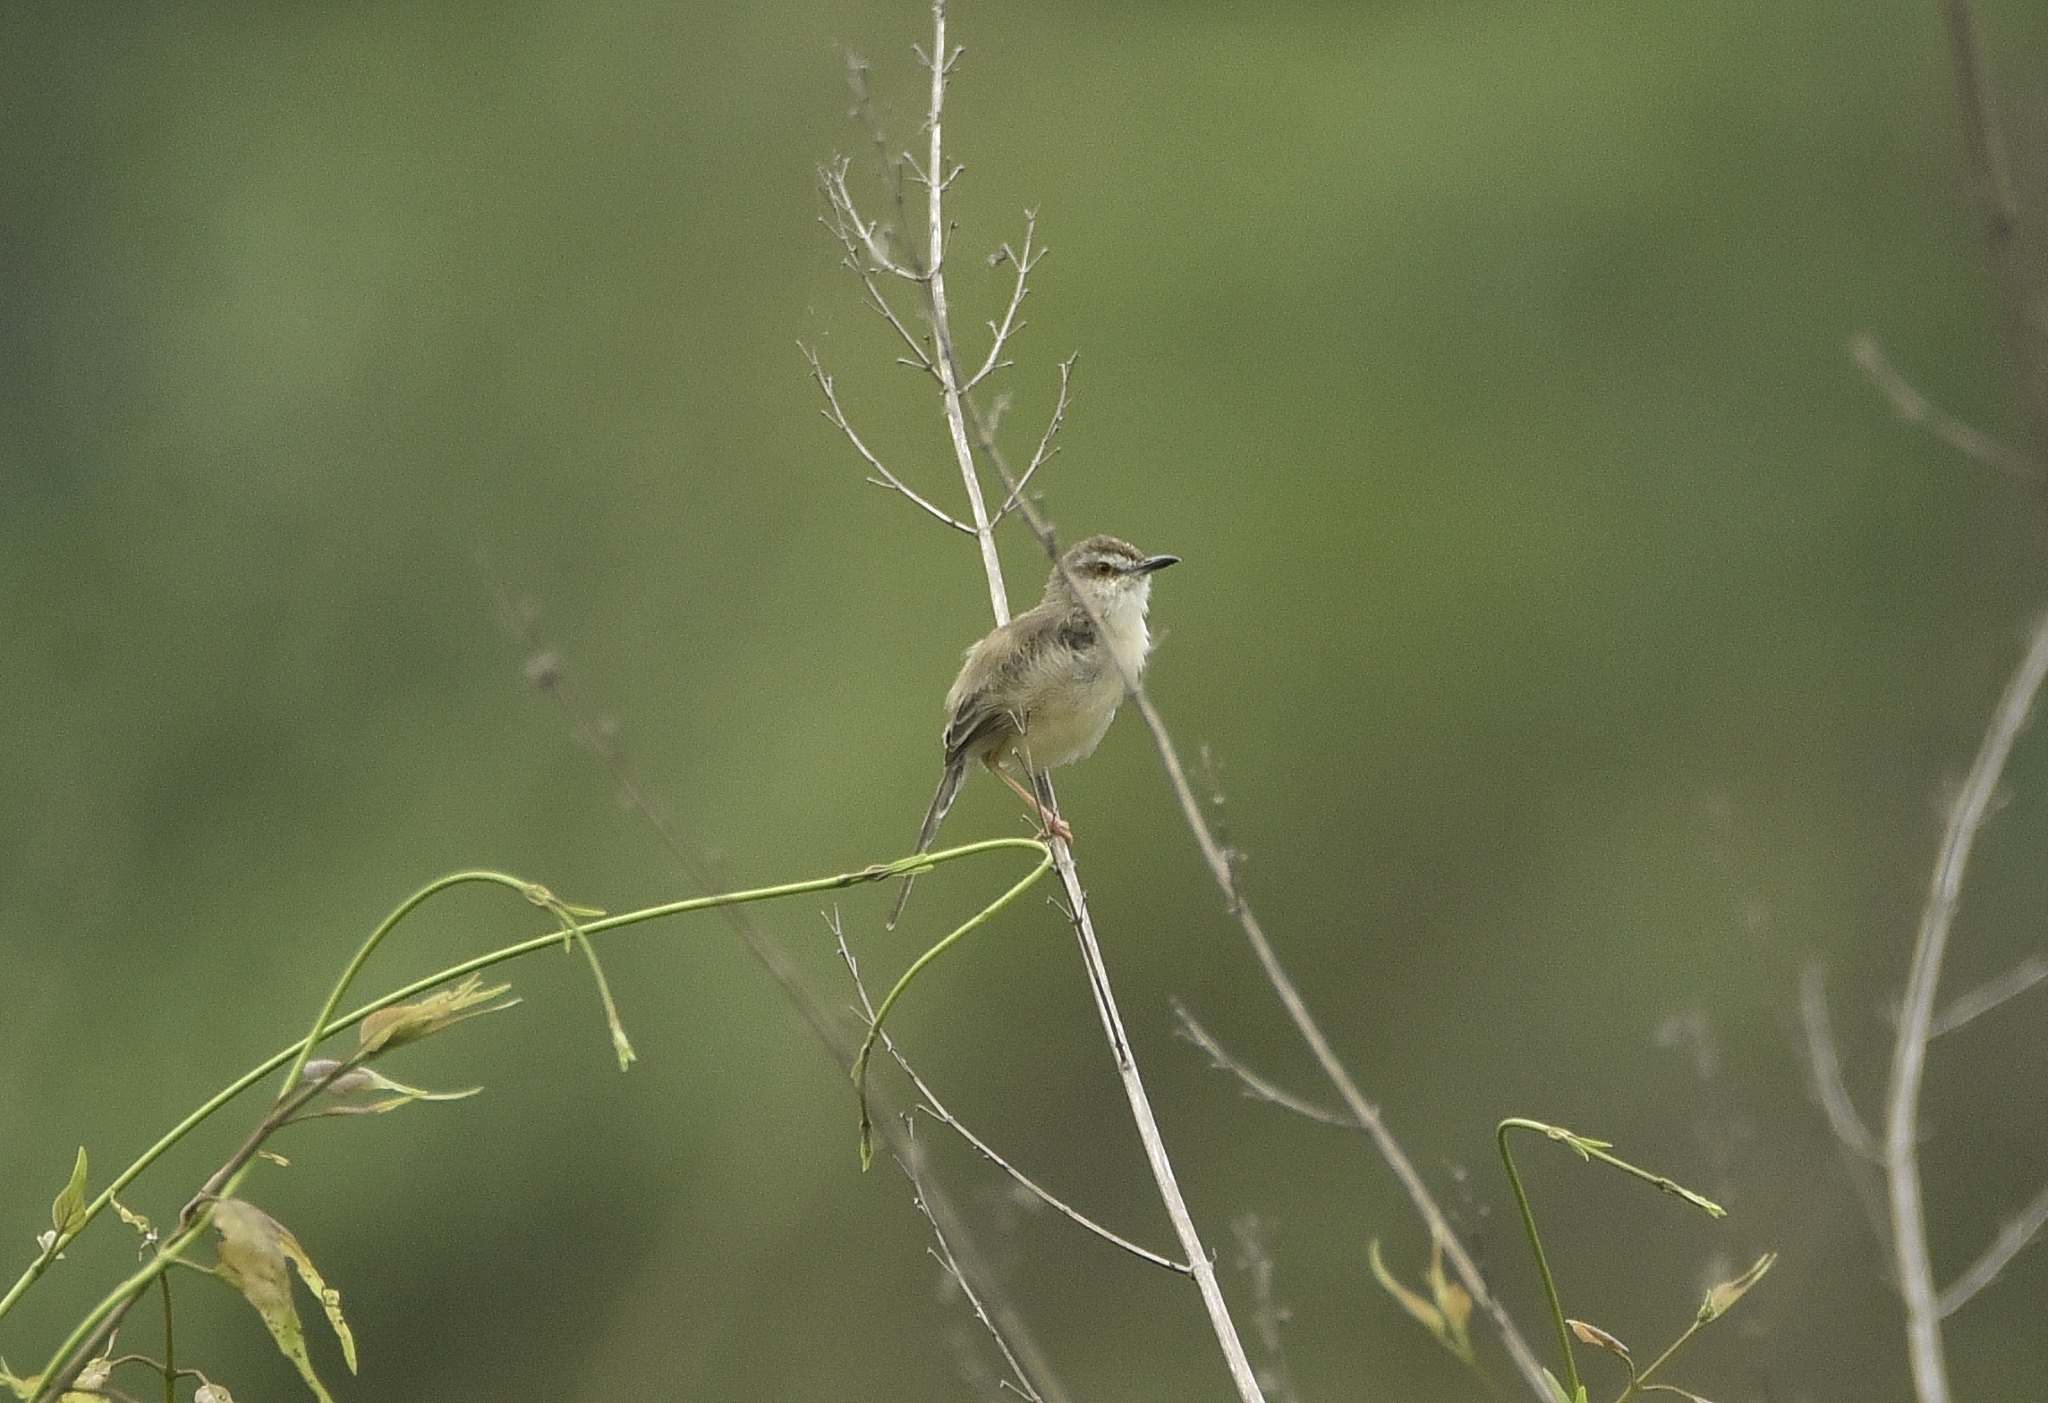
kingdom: Animalia
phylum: Chordata
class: Aves
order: Passeriformes
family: Cisticolidae
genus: Prinia
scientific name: Prinia inornata
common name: Plain prinia
